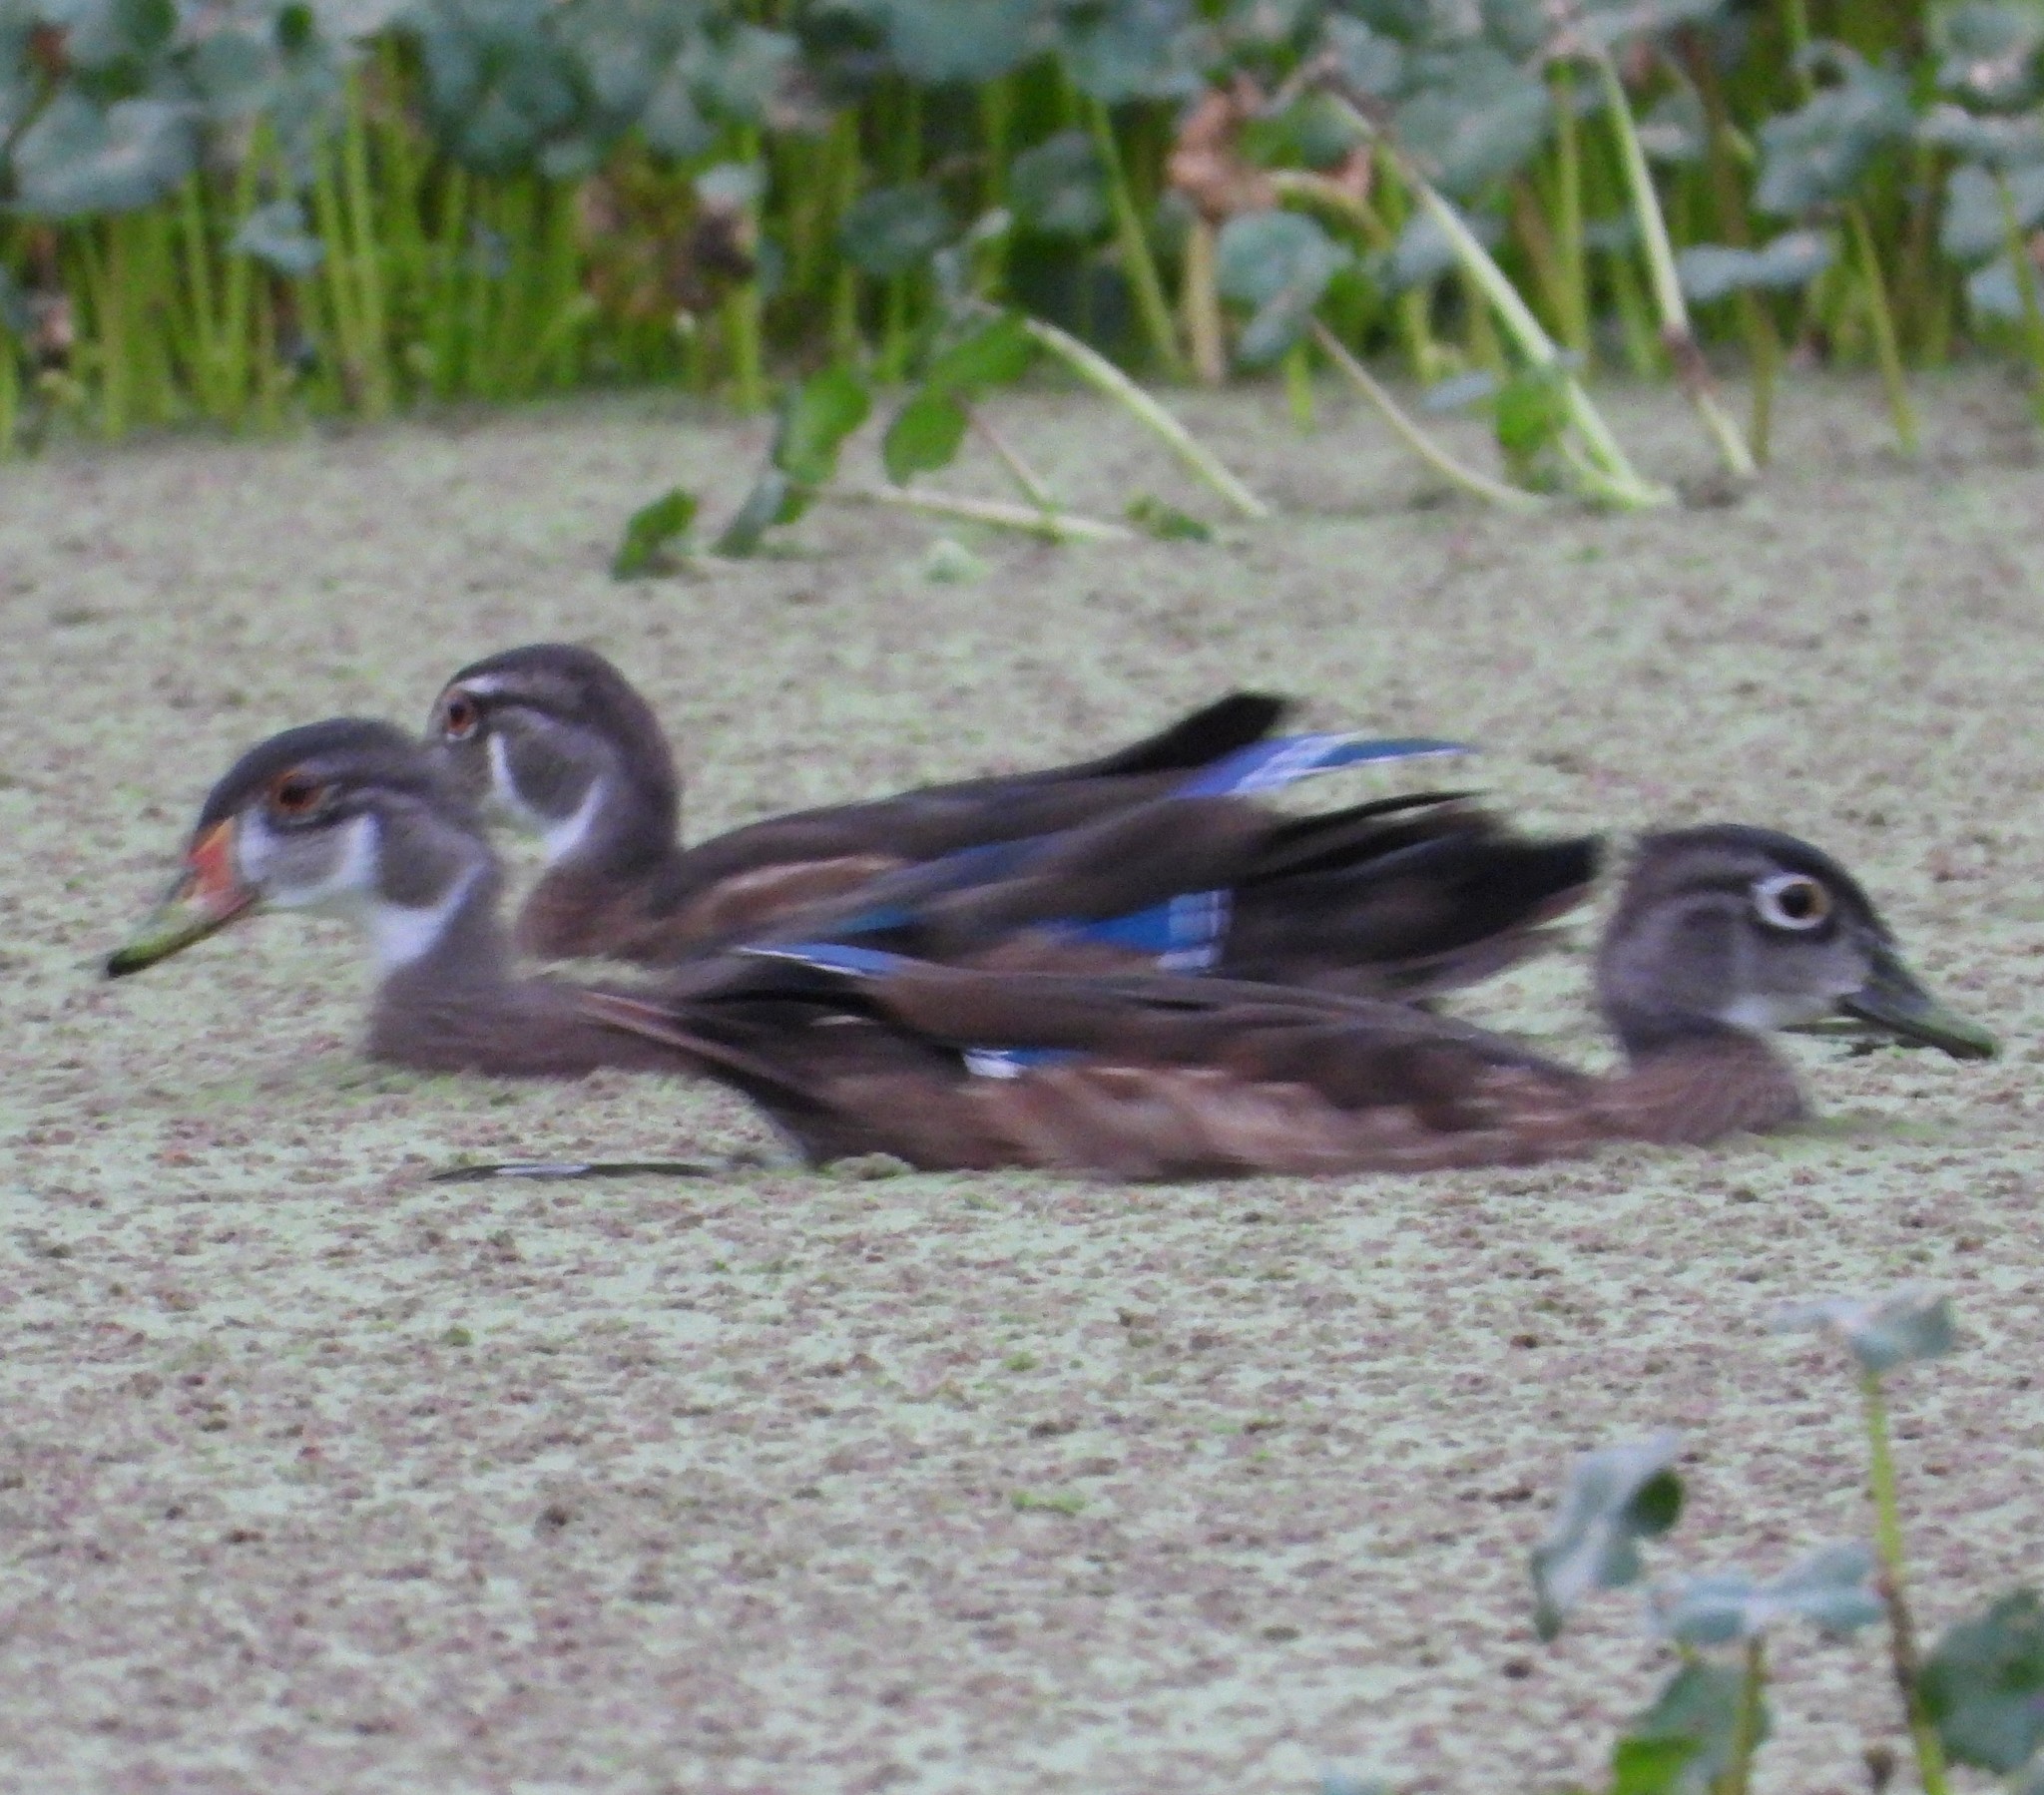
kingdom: Animalia
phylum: Chordata
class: Aves
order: Anseriformes
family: Anatidae
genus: Aix
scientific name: Aix sponsa
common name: Wood duck
